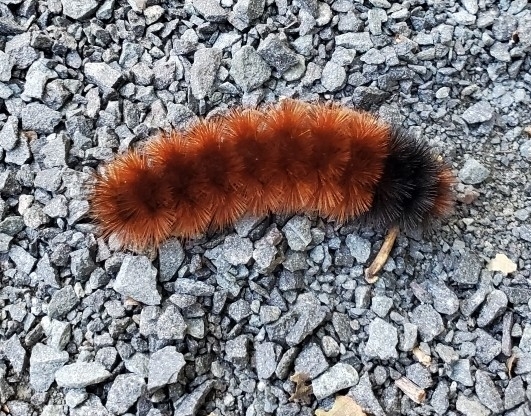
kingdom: Animalia
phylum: Arthropoda
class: Insecta
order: Lepidoptera
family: Erebidae
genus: Pyrrharctia
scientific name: Pyrrharctia isabella
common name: Isabella tiger moth
